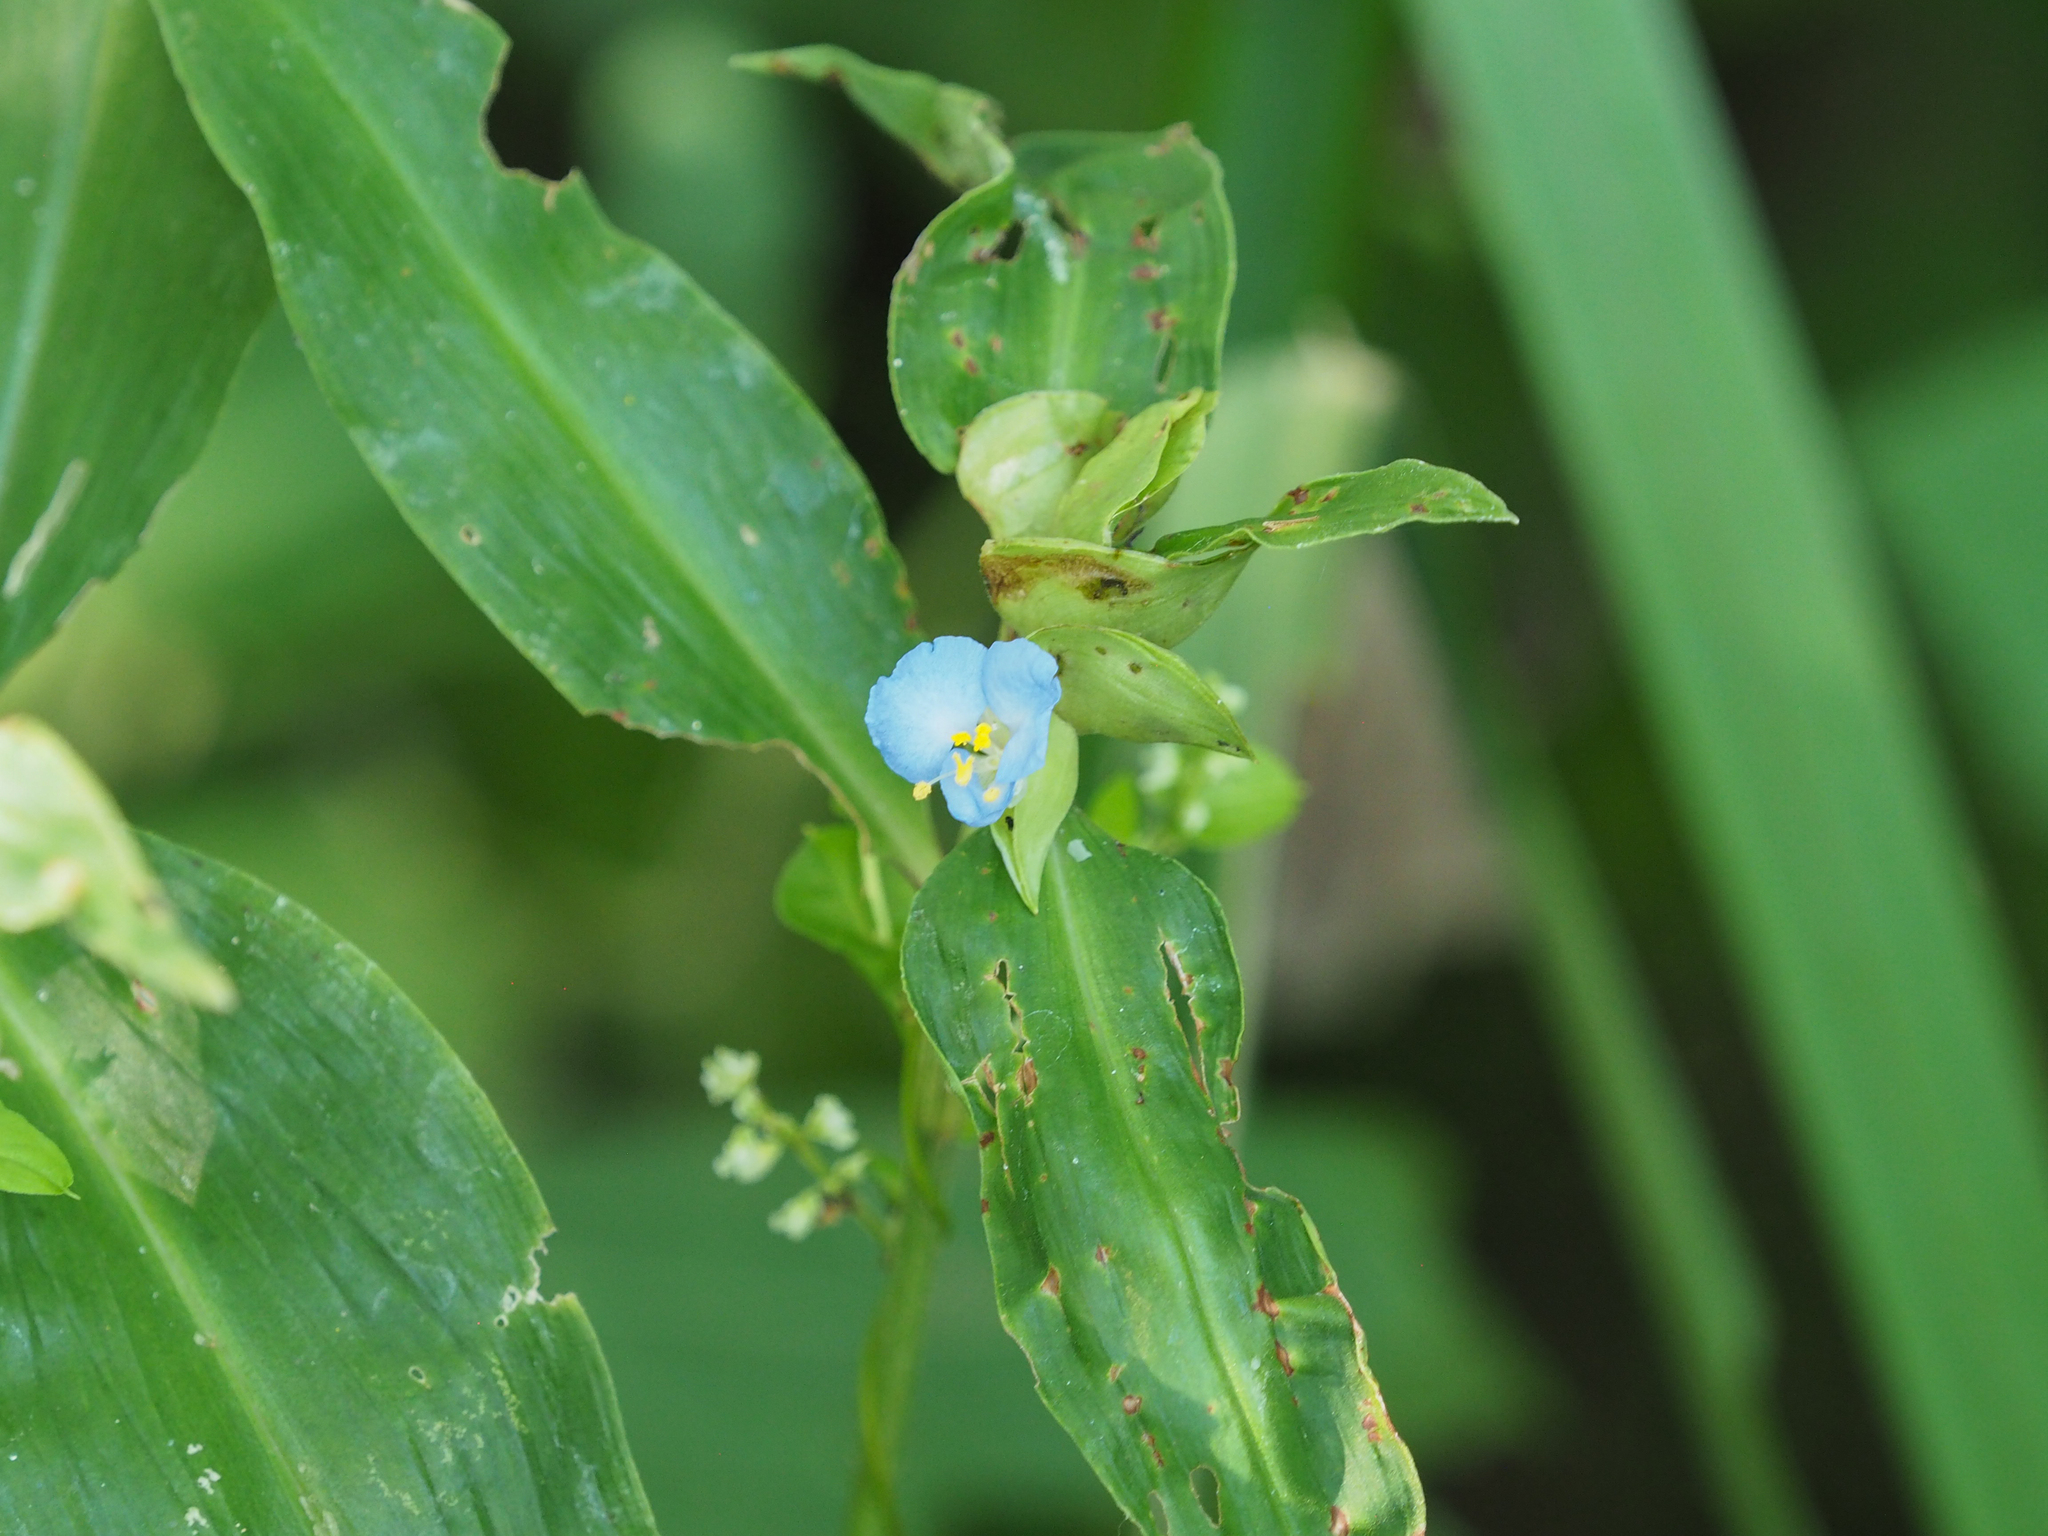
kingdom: Plantae
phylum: Tracheophyta
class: Liliopsida
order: Commelinales
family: Commelinaceae
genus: Commelina
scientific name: Commelina virginica
